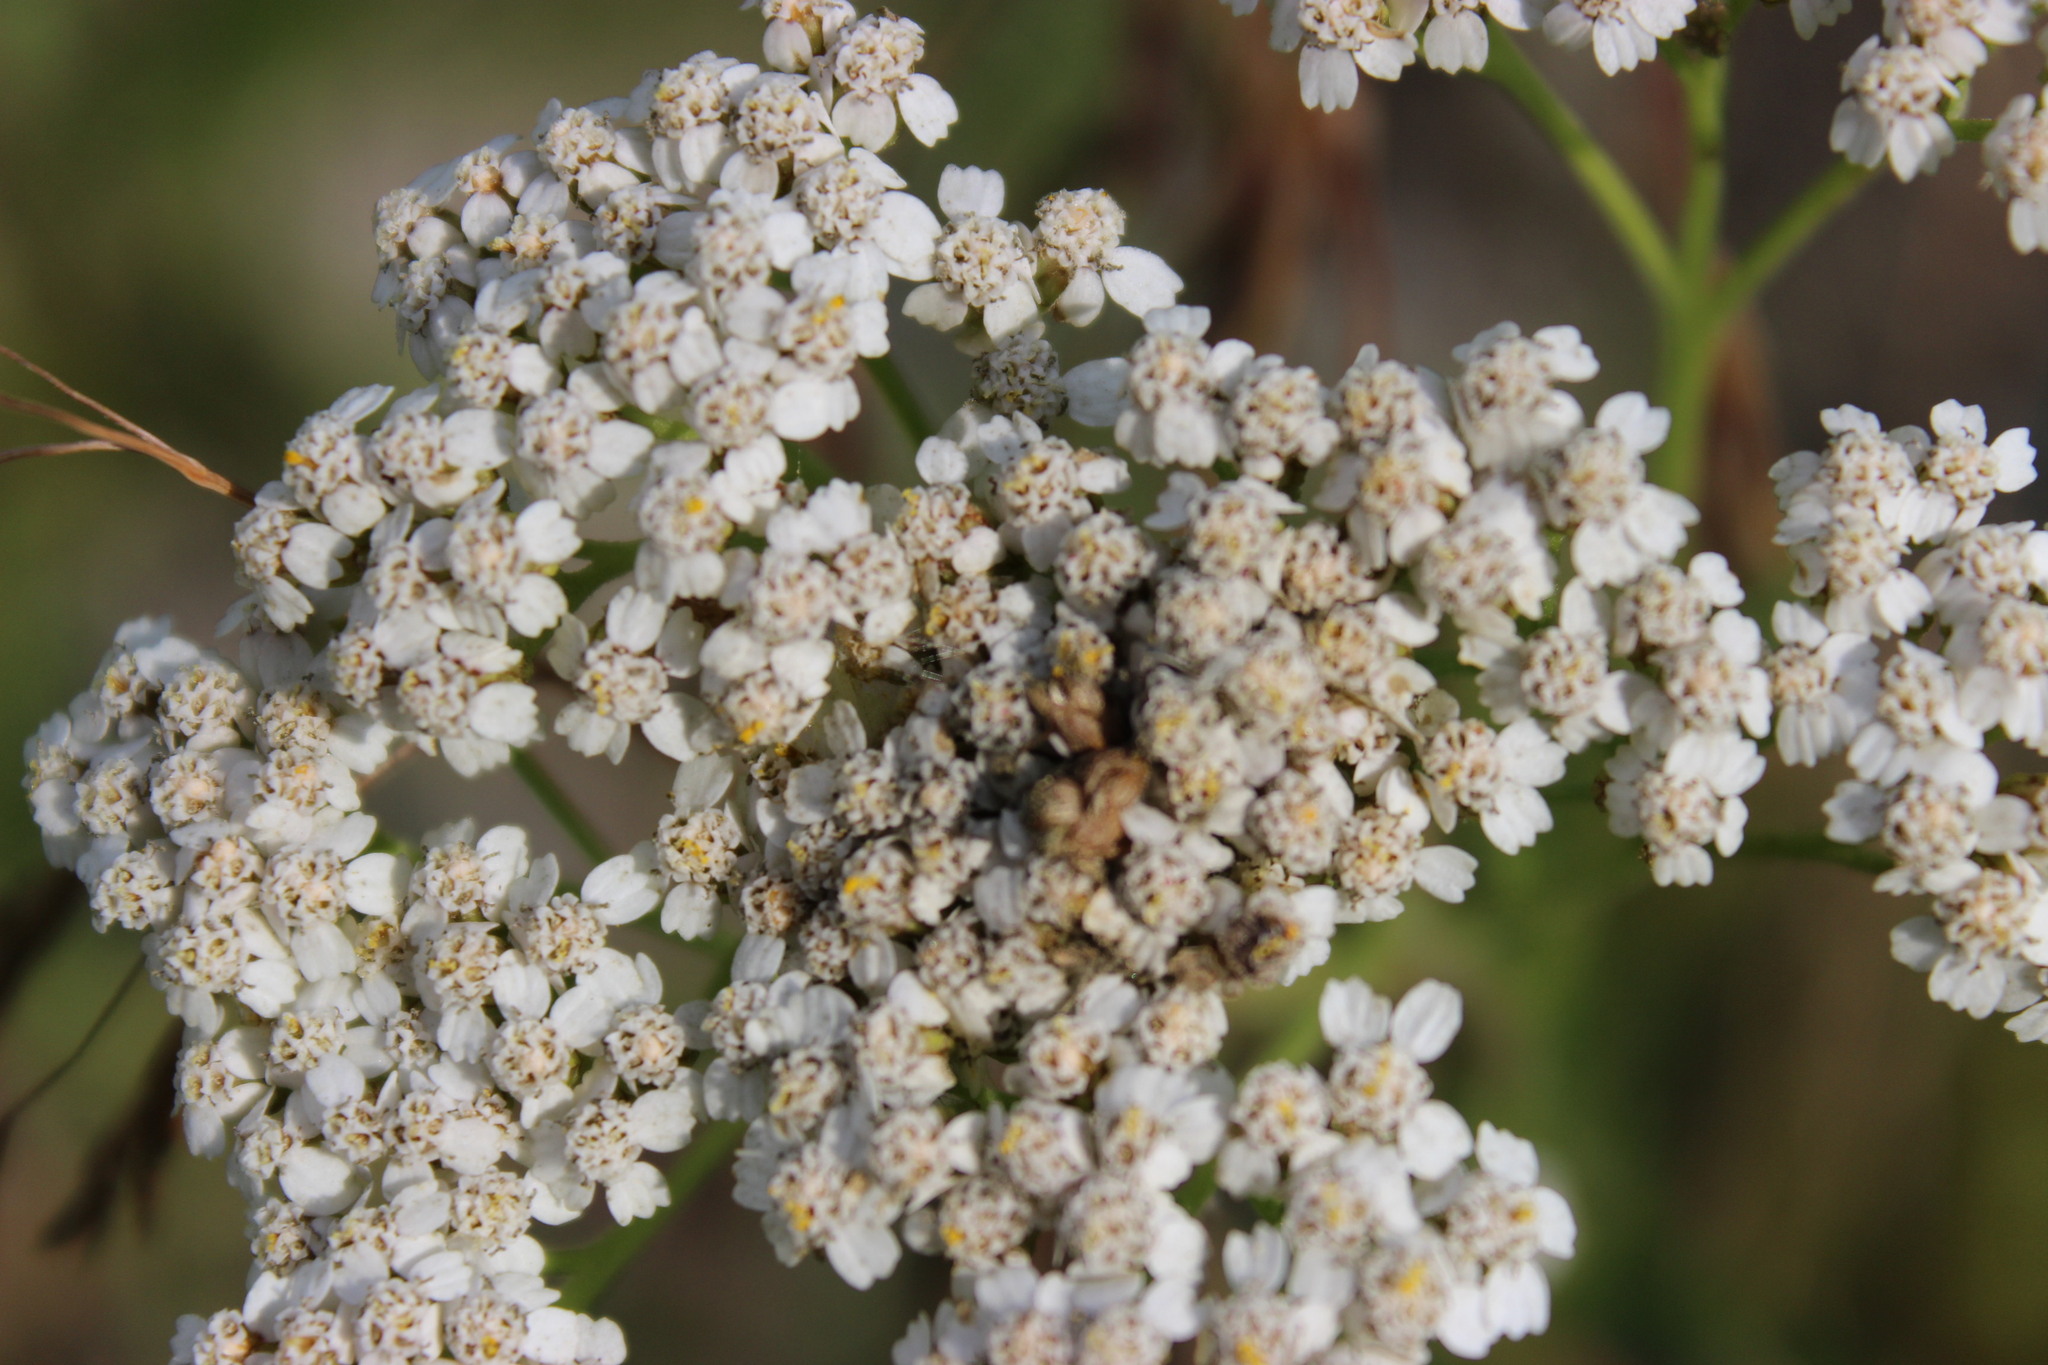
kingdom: Plantae
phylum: Tracheophyta
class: Magnoliopsida
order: Asterales
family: Asteraceae
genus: Achillea
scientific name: Achillea millefolium
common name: Yarrow
